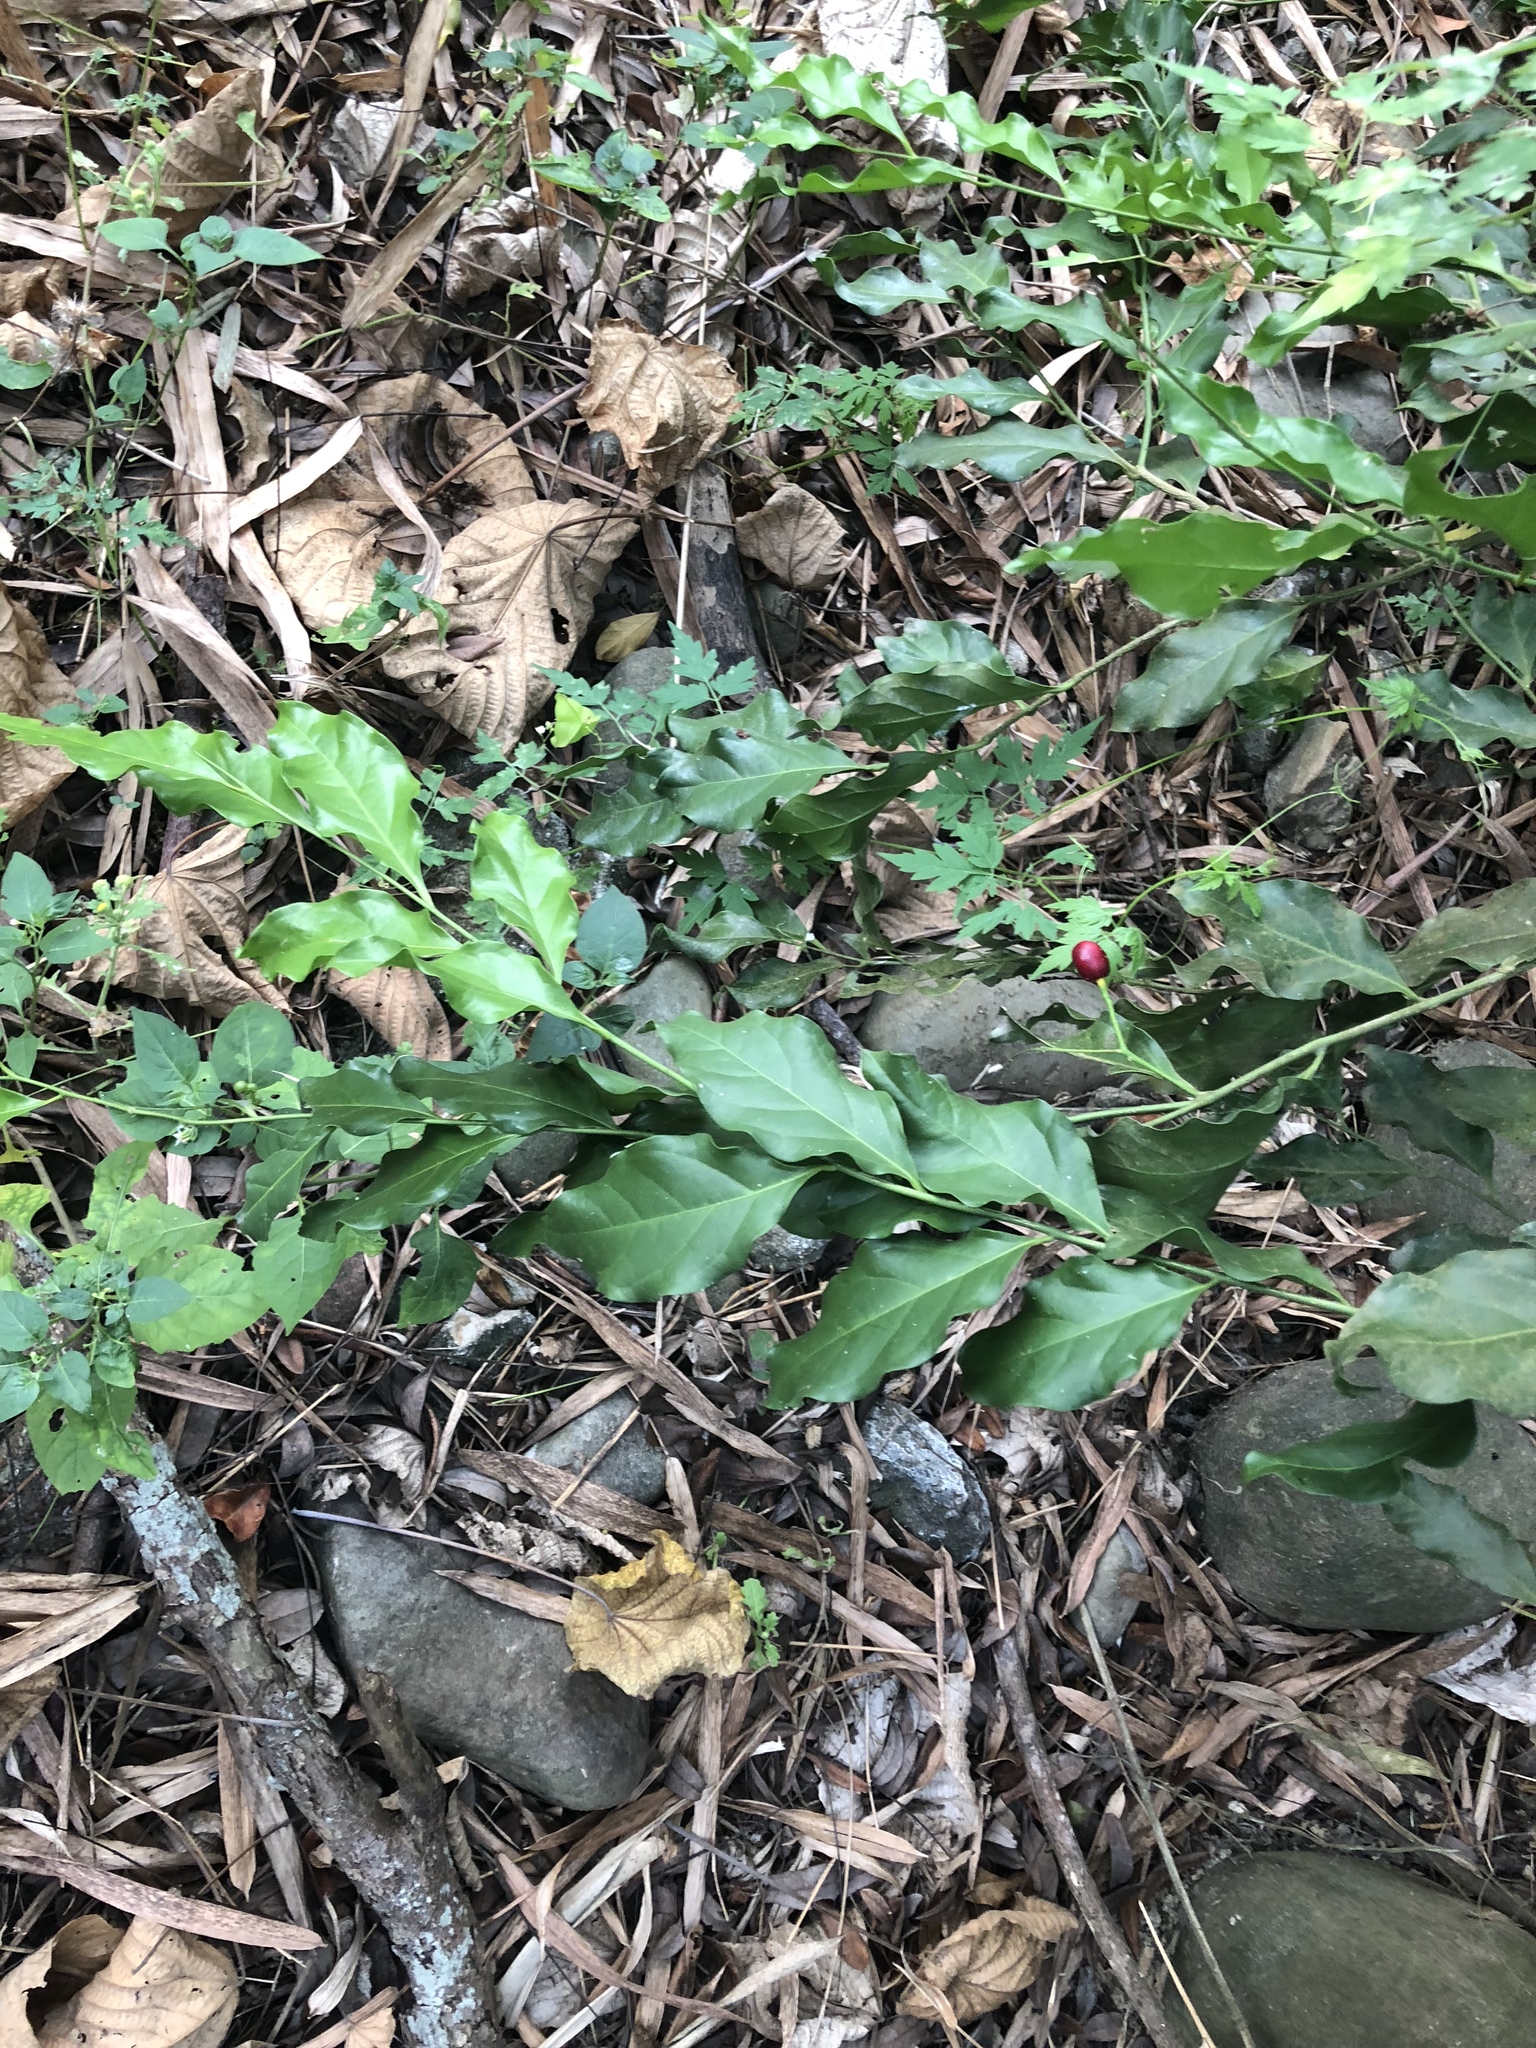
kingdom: Plantae
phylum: Tracheophyta
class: Magnoliopsida
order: Santalales
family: Opiliaceae
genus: Champereia
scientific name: Champereia manillana
